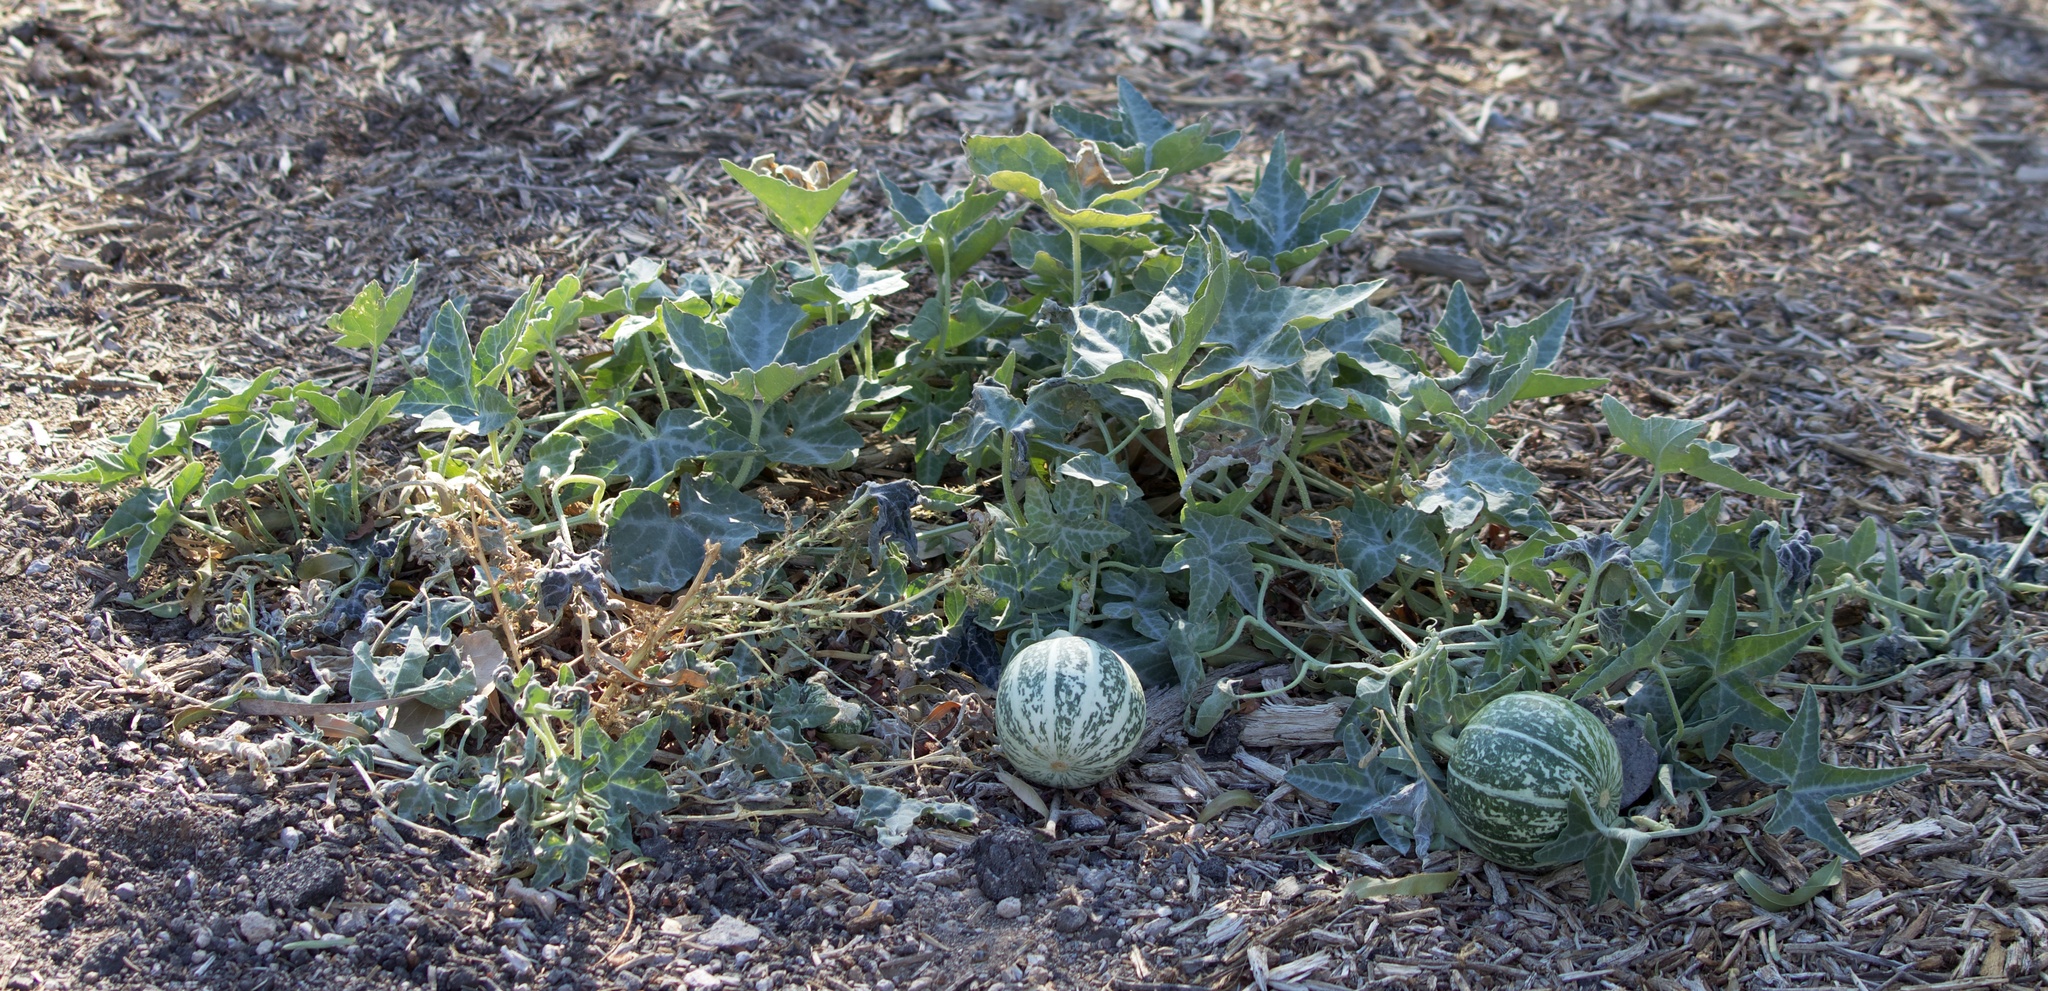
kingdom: Plantae
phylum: Tracheophyta
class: Magnoliopsida
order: Cucurbitales
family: Cucurbitaceae
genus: Cucurbita
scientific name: Cucurbita palmata
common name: Coyote-melon
